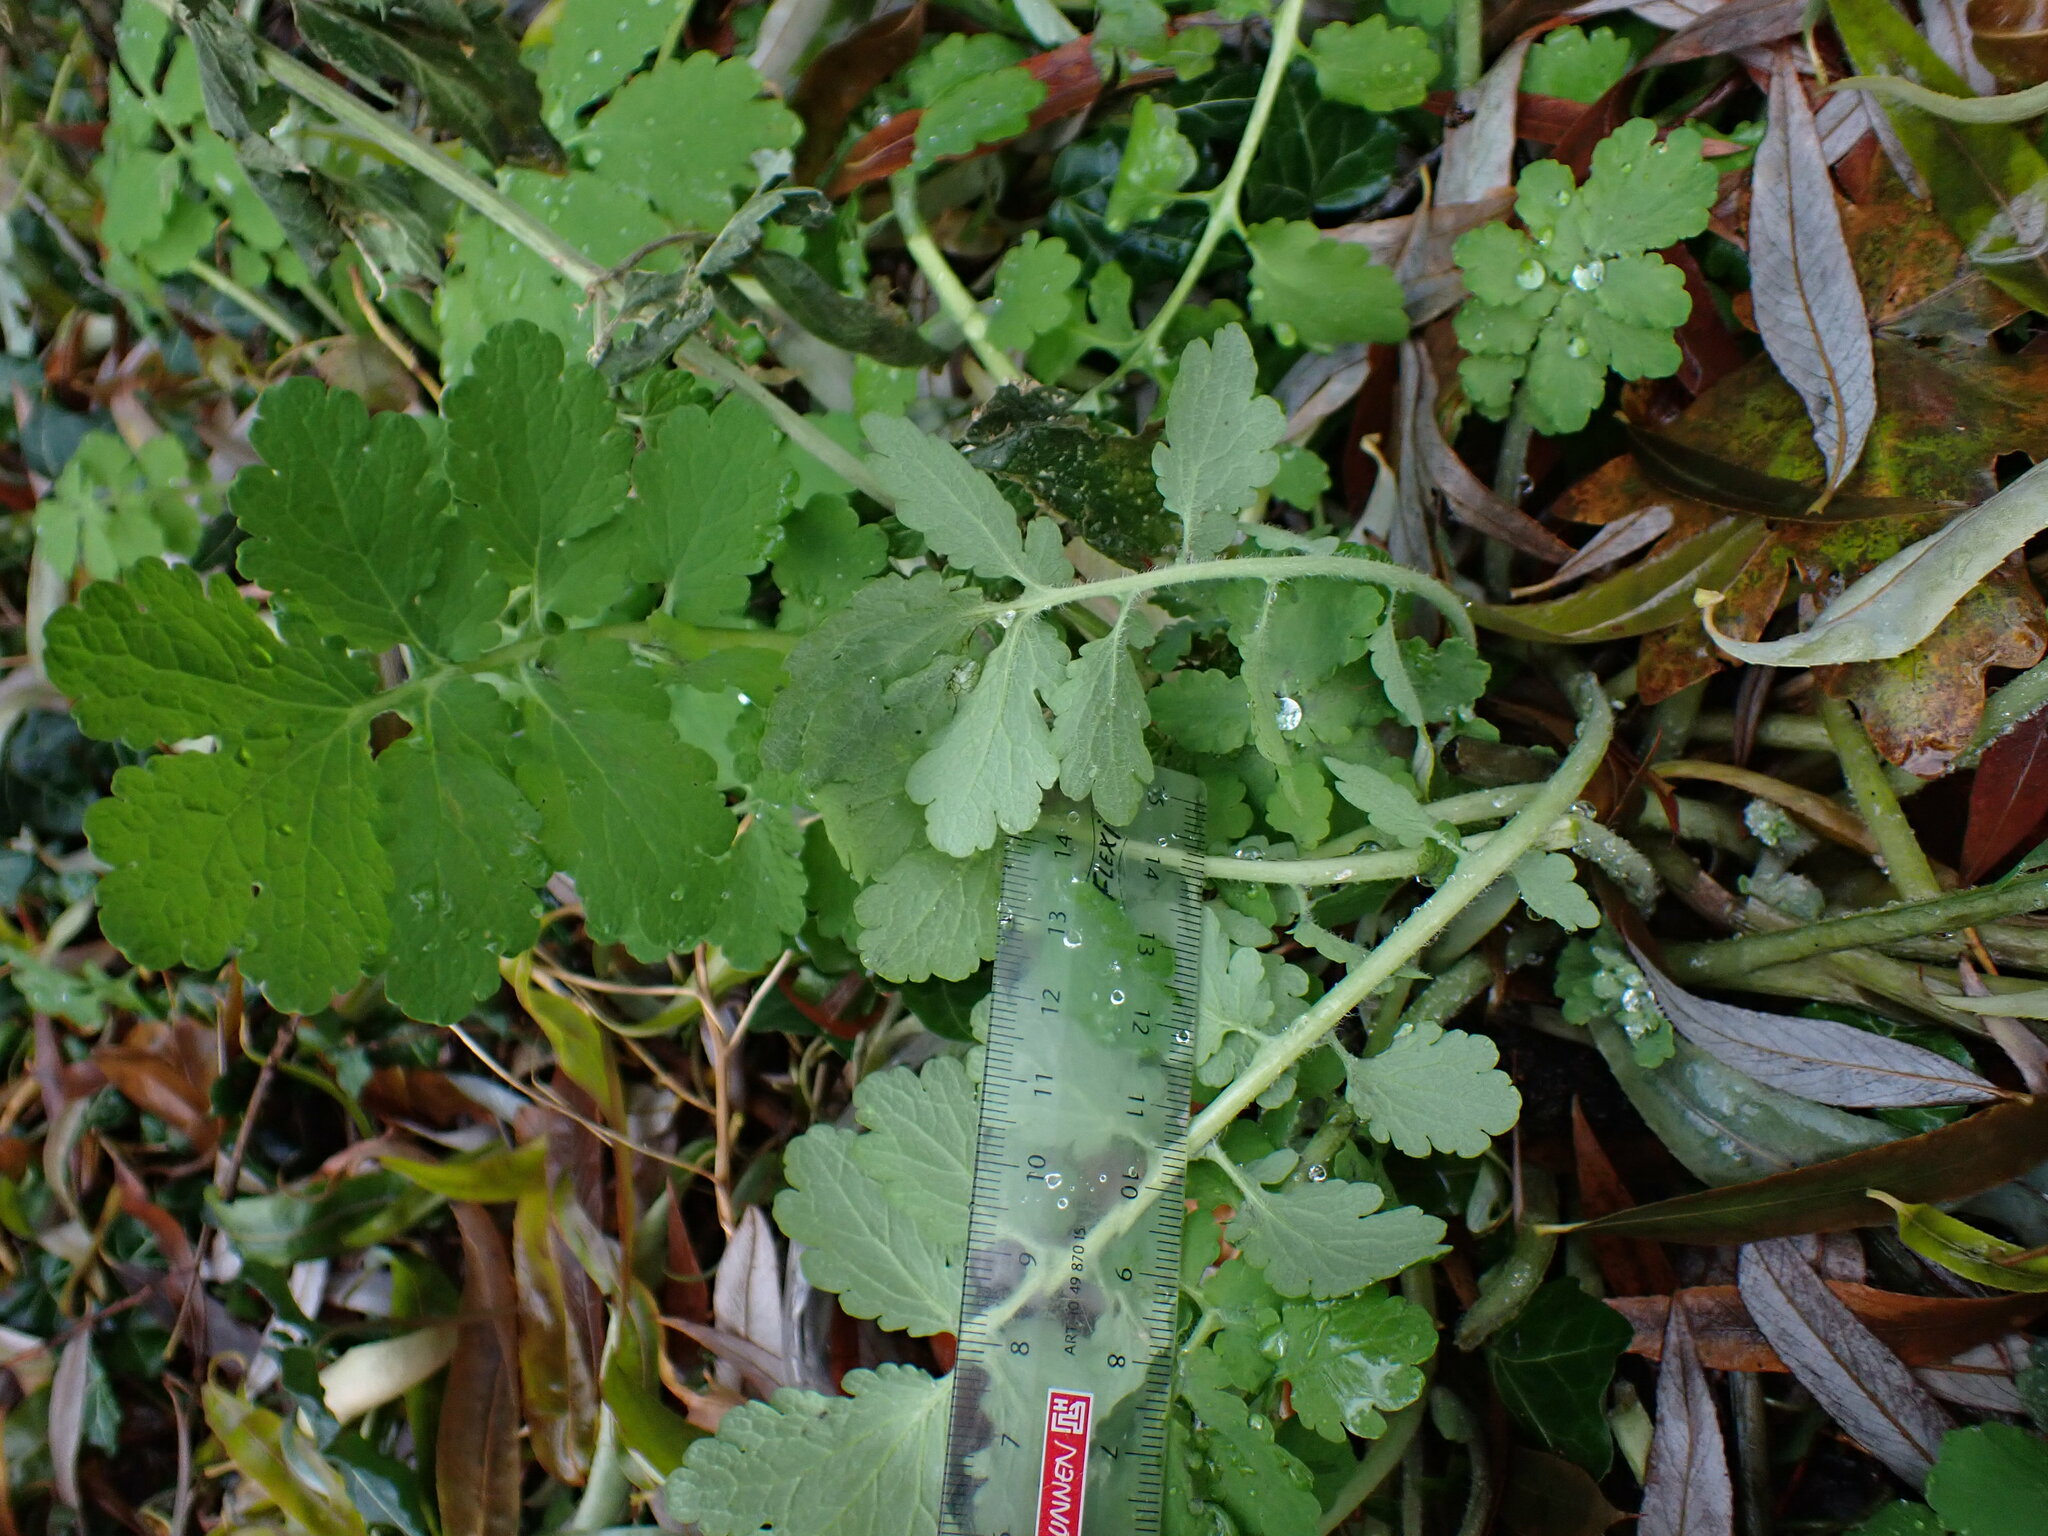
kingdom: Plantae
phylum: Tracheophyta
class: Magnoliopsida
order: Ranunculales
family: Papaveraceae
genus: Chelidonium
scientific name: Chelidonium majus
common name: Greater celandine
